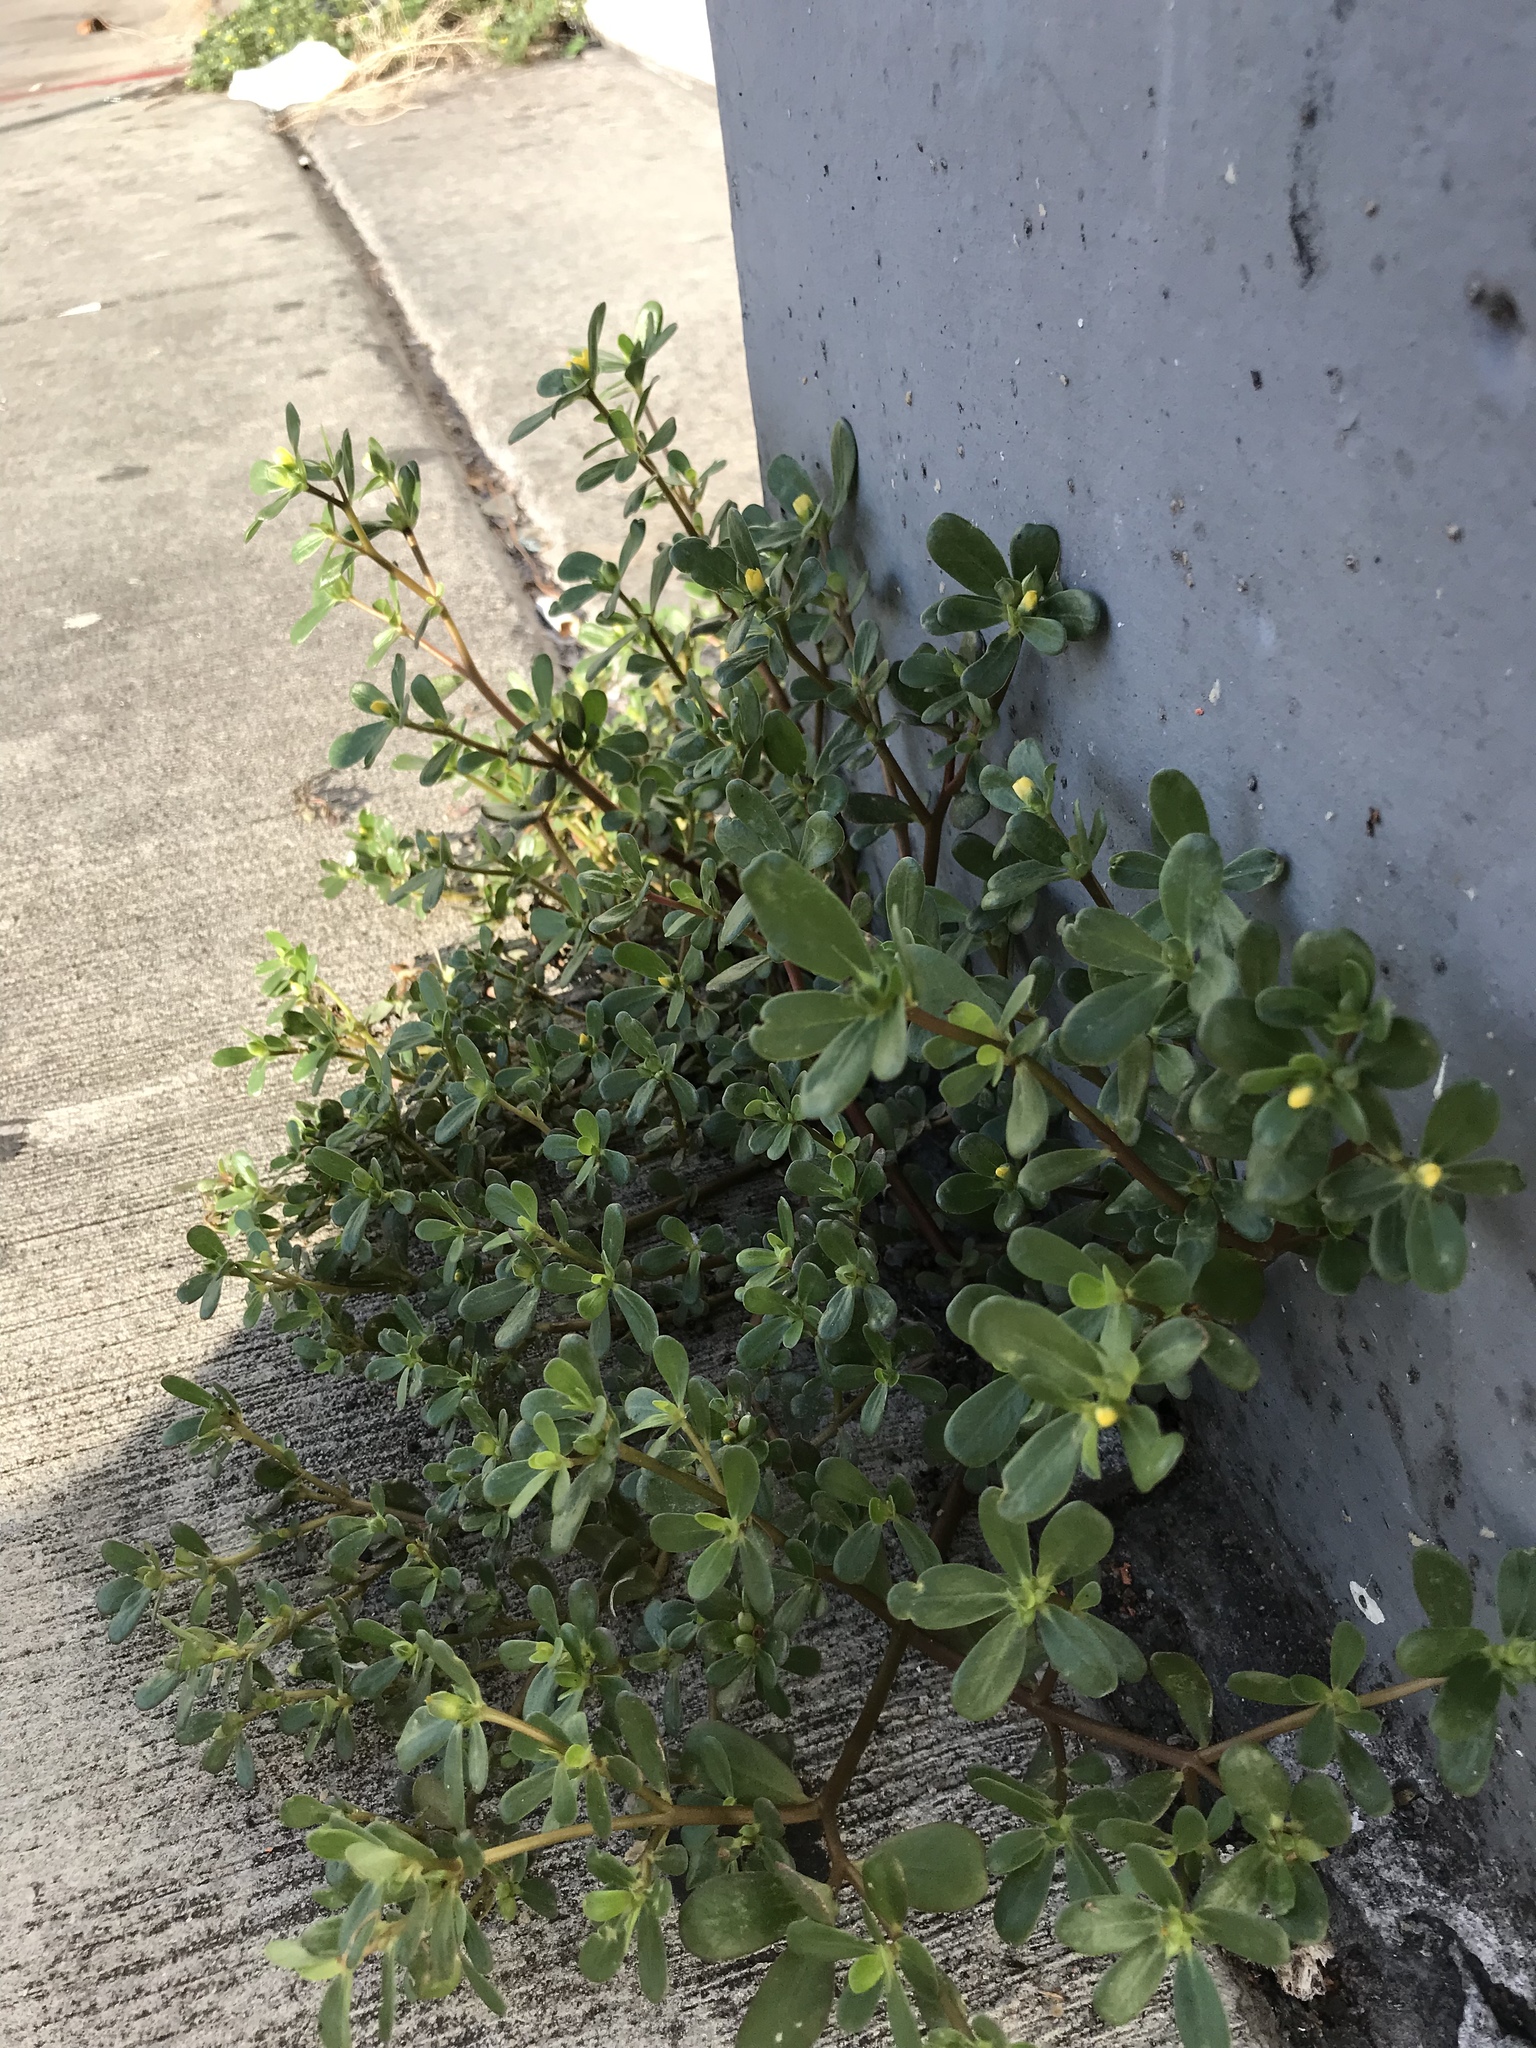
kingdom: Plantae
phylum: Tracheophyta
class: Magnoliopsida
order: Caryophyllales
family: Portulacaceae
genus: Portulaca
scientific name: Portulaca oleracea
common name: Common purslane
